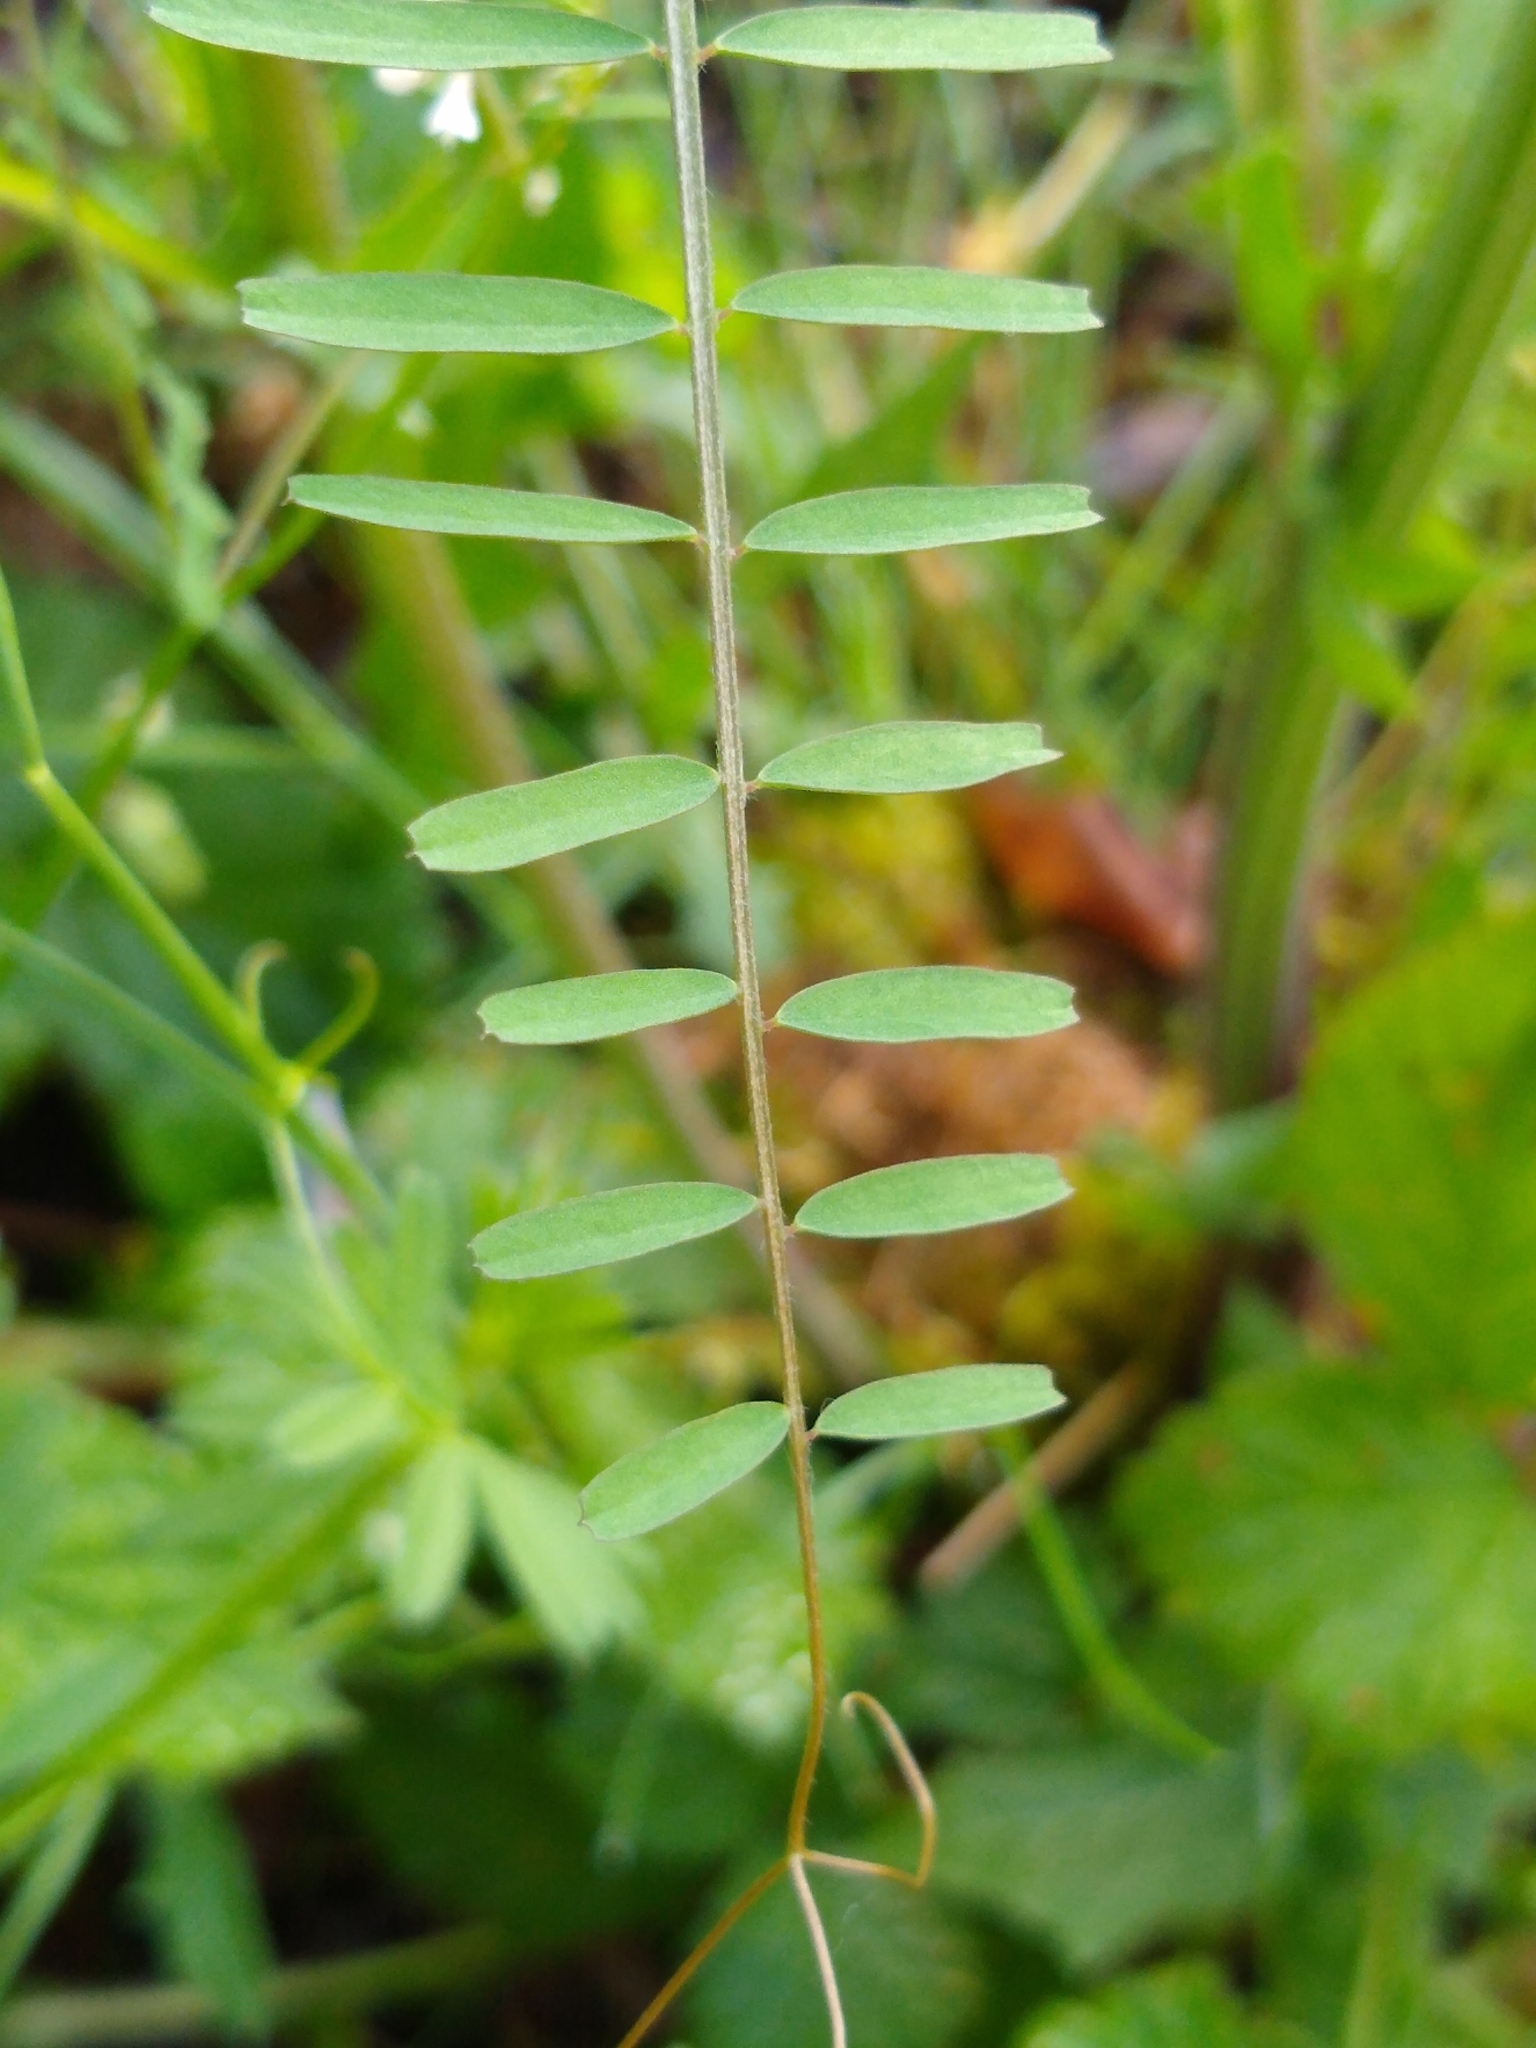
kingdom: Plantae
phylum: Tracheophyta
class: Magnoliopsida
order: Fabales
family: Fabaceae
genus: Vicia
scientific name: Vicia hirsuta
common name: Tiny vetch
